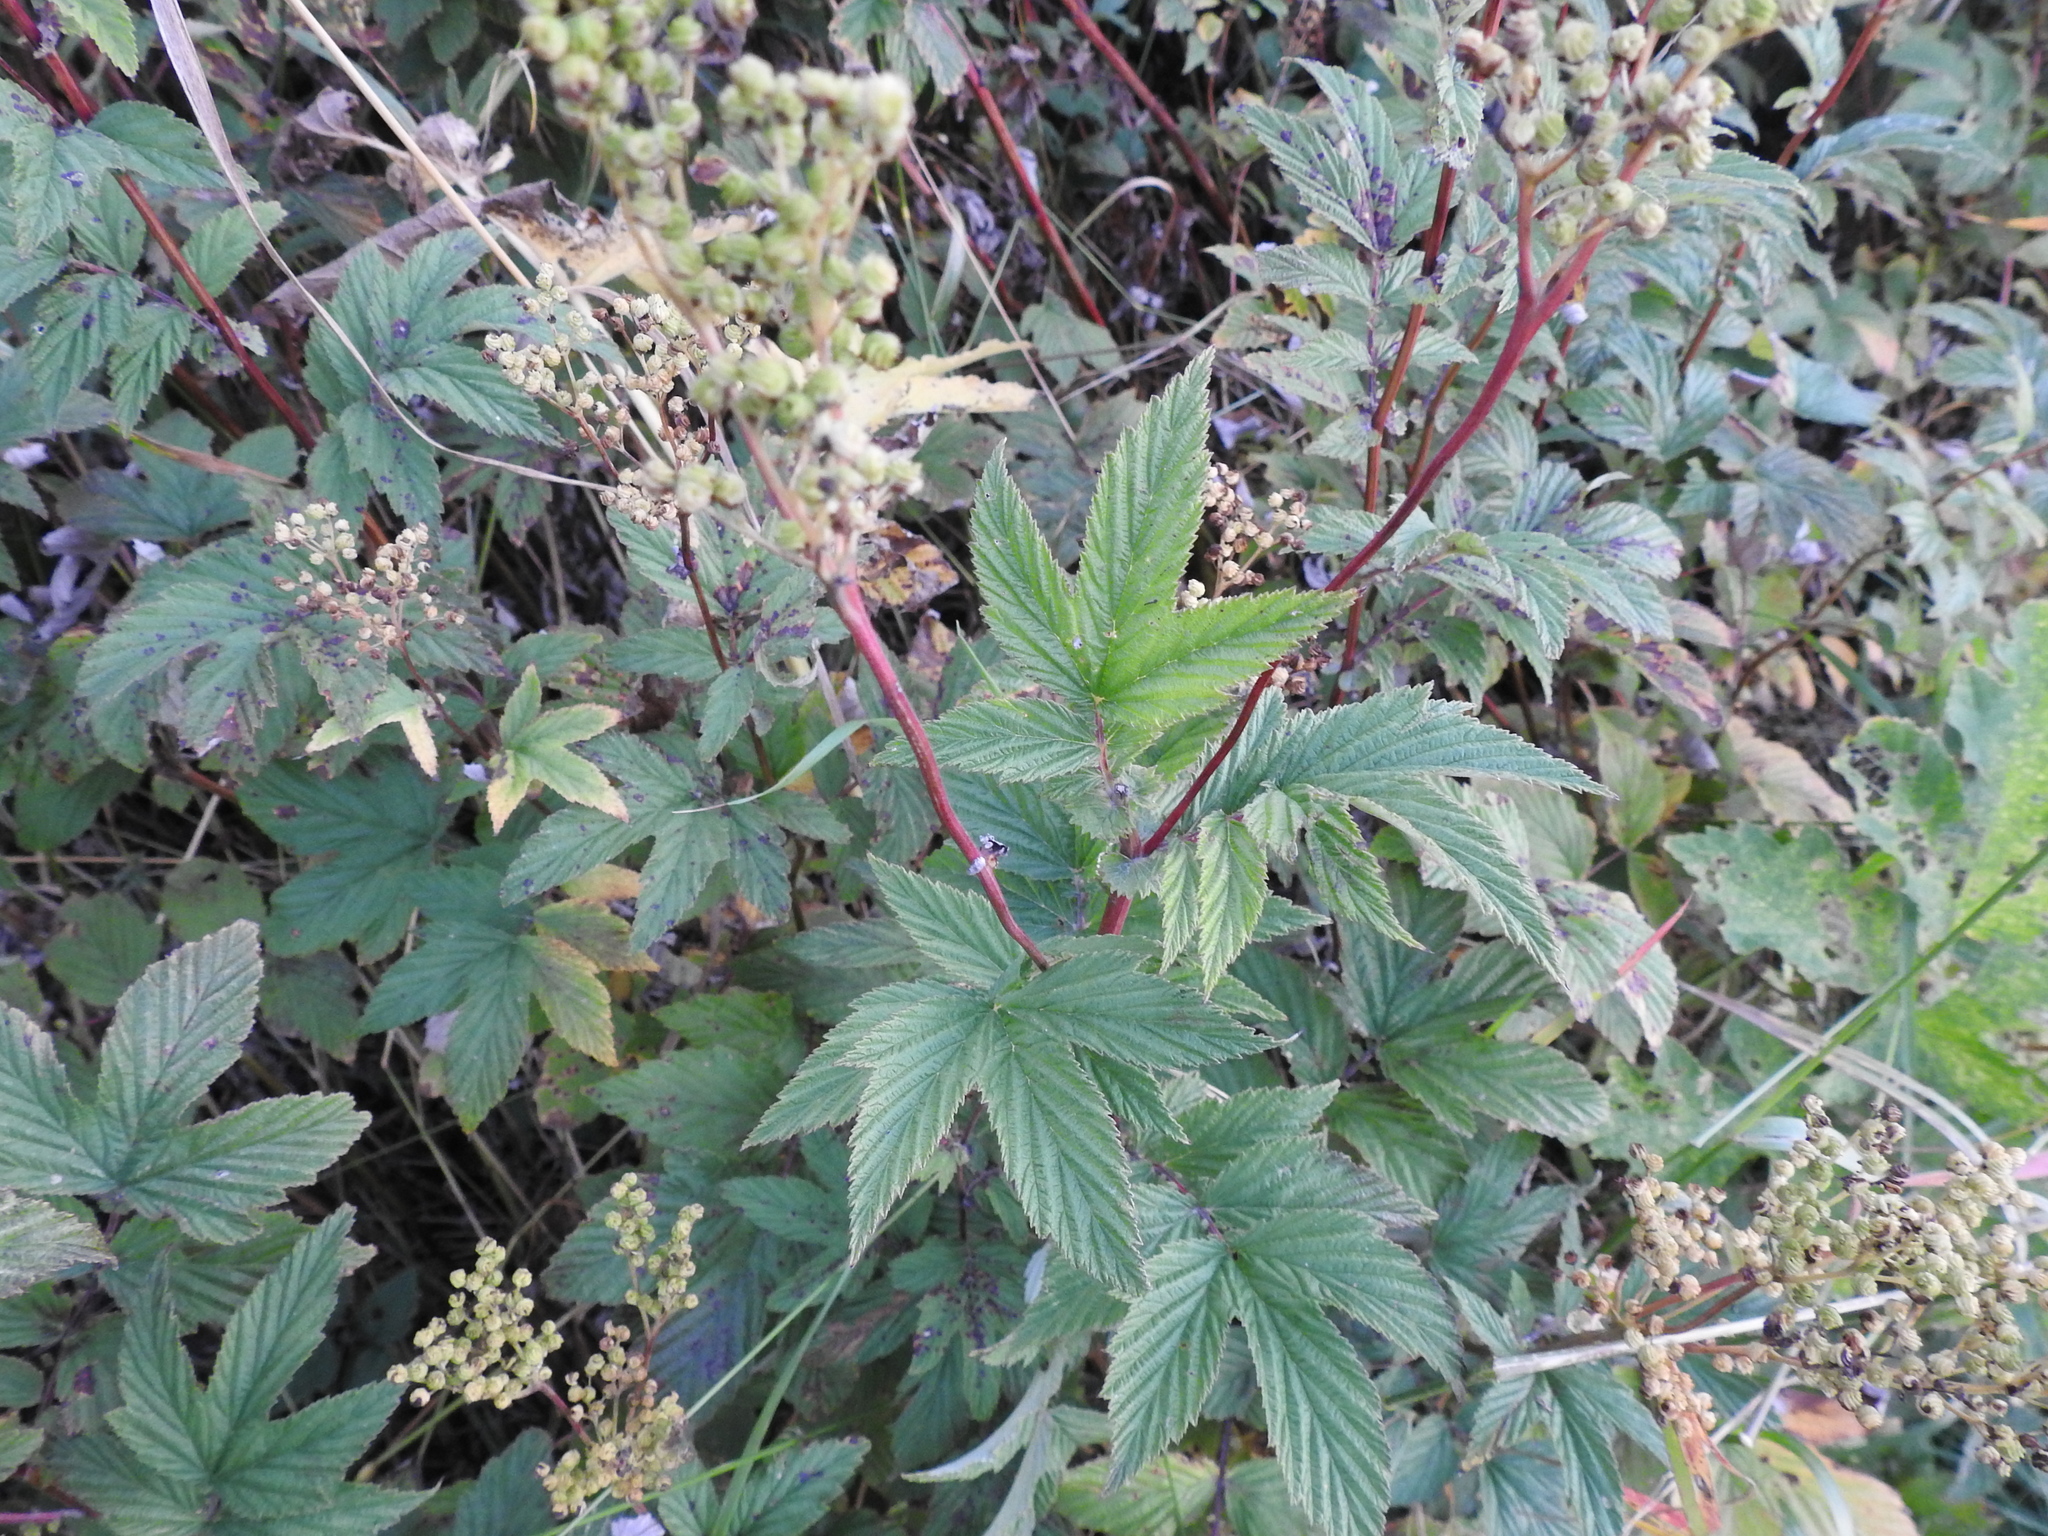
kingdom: Plantae
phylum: Tracheophyta
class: Magnoliopsida
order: Rosales
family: Rosaceae
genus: Filipendula
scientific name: Filipendula ulmaria
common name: Meadowsweet
